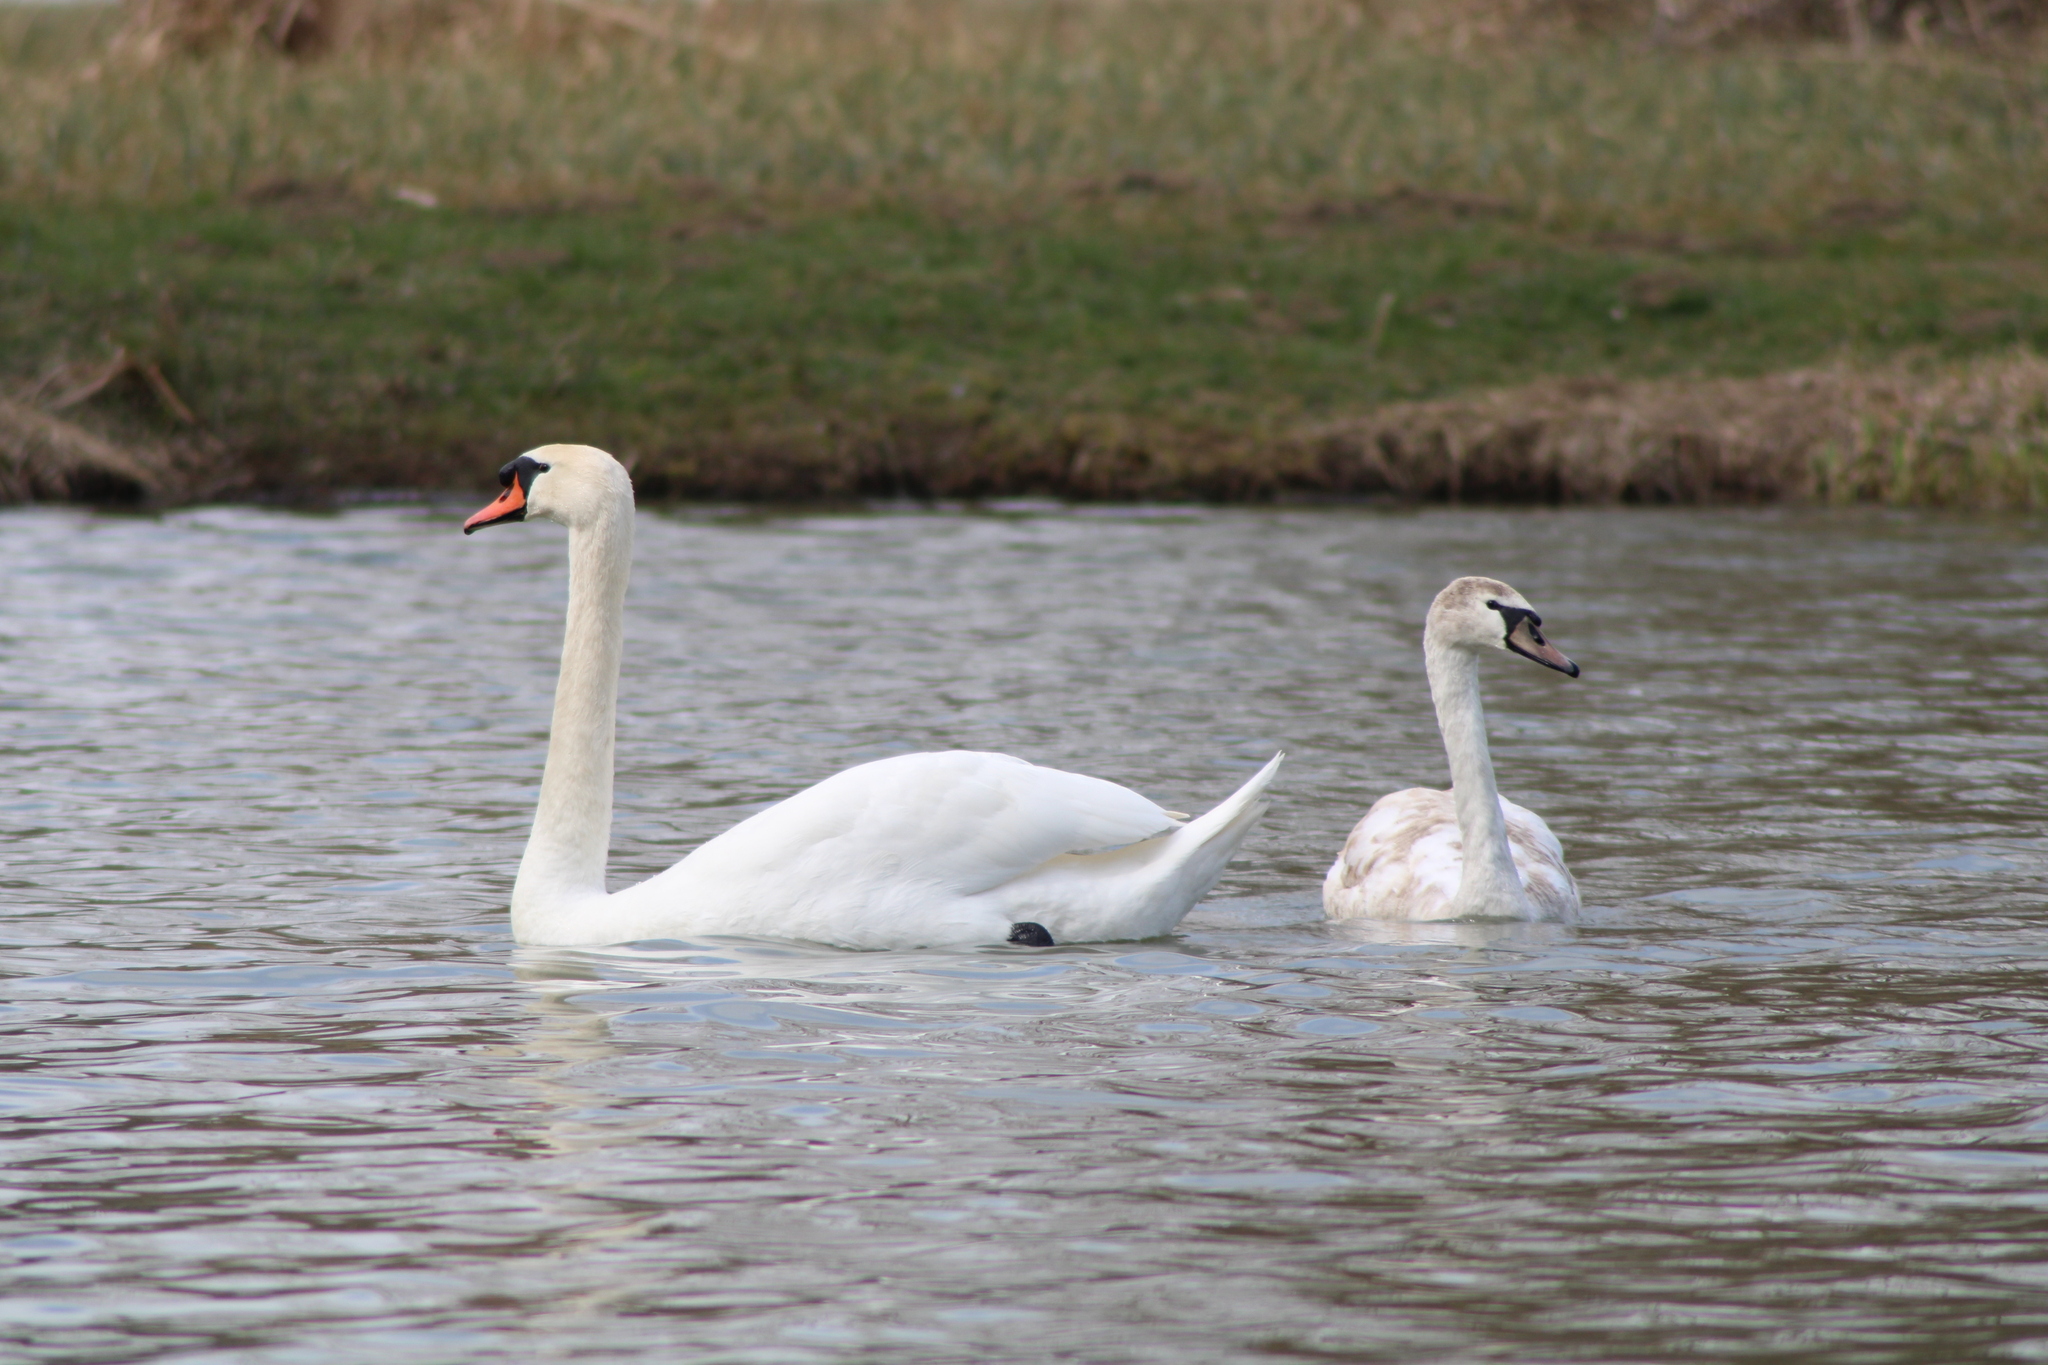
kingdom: Animalia
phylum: Chordata
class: Aves
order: Anseriformes
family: Anatidae
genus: Cygnus
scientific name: Cygnus olor
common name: Mute swan
